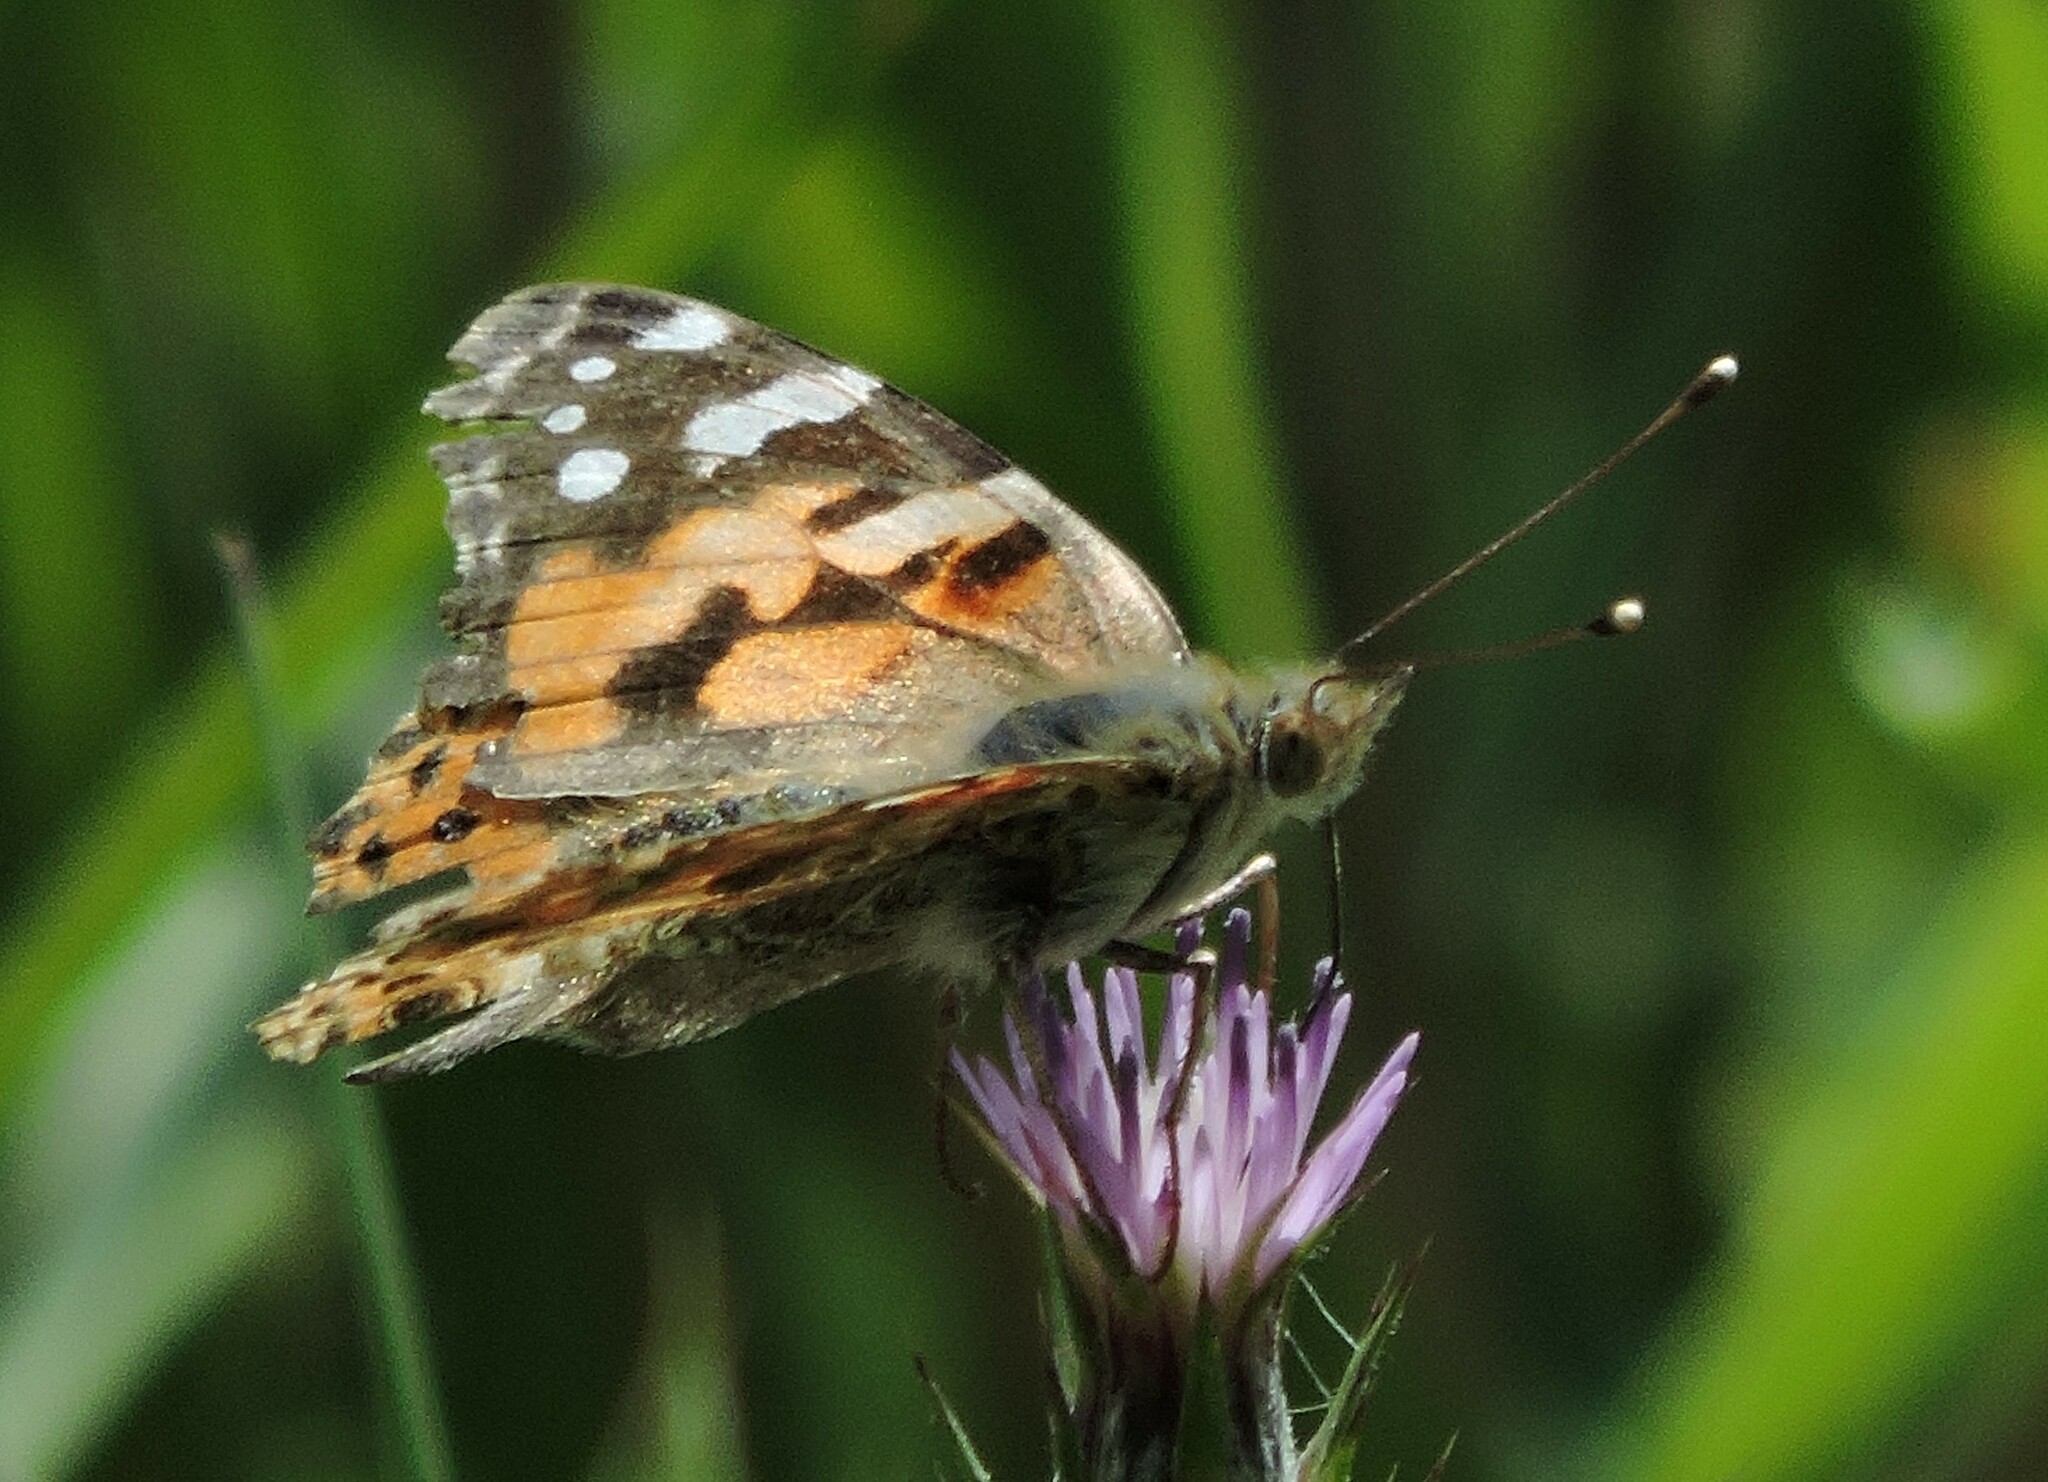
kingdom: Animalia
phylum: Arthropoda
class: Insecta
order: Lepidoptera
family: Nymphalidae
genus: Vanessa
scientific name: Vanessa cardui
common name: Painted lady
